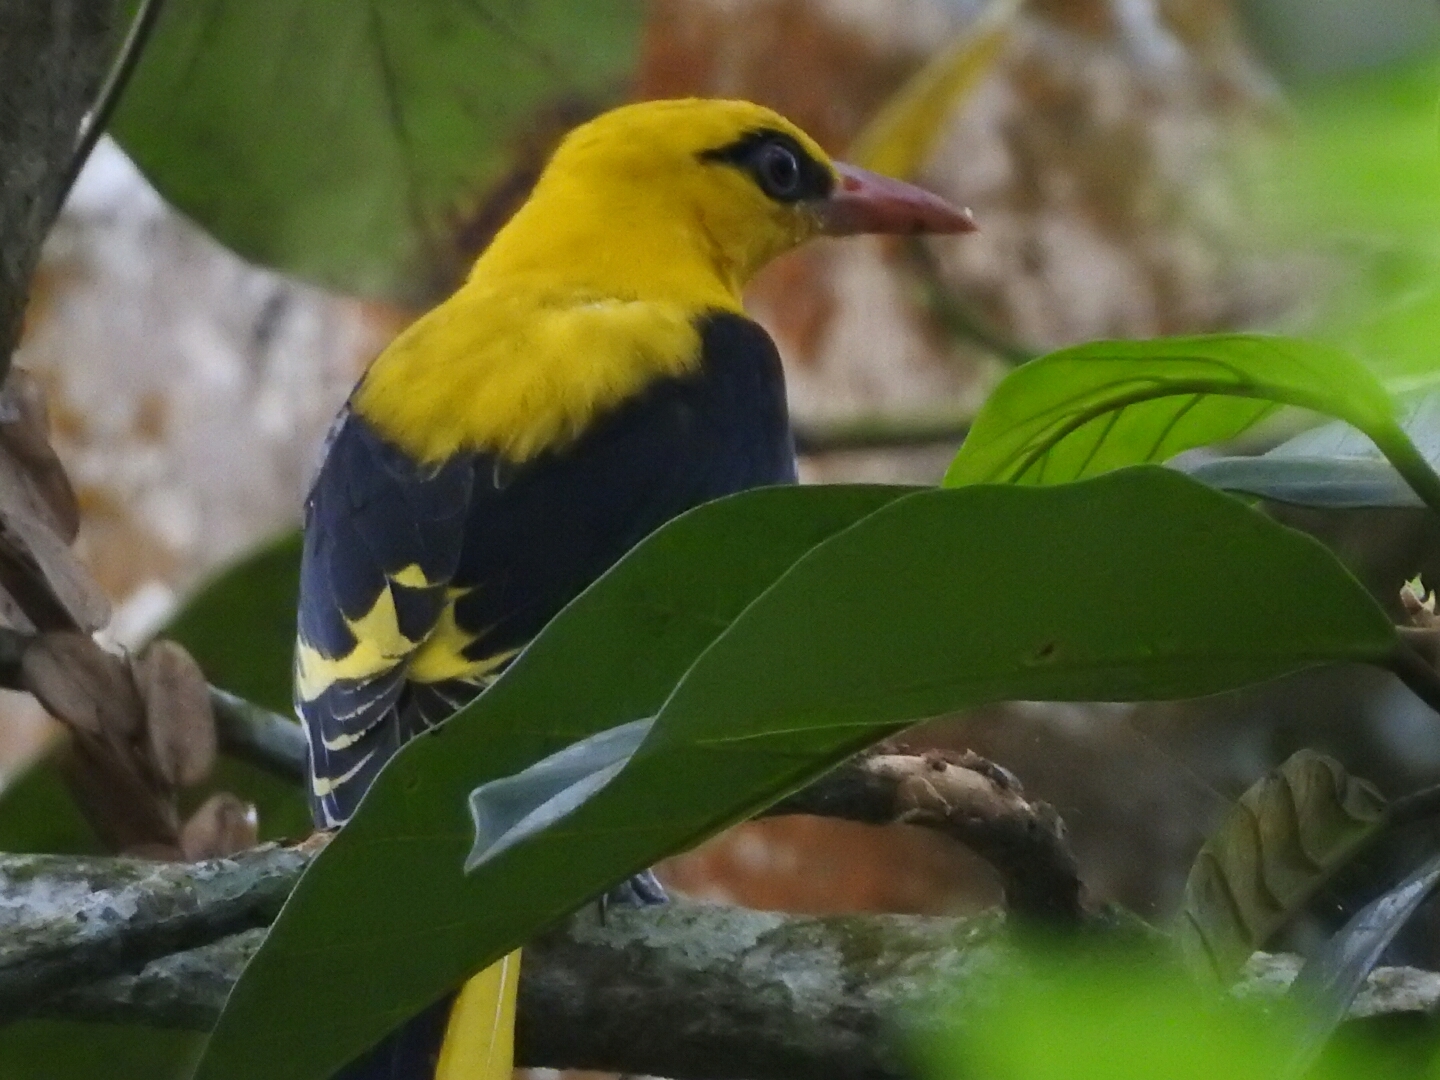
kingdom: Animalia
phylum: Chordata
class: Aves
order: Passeriformes
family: Oriolidae
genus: Oriolus
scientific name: Oriolus kundoo
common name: Indian golden oriole
